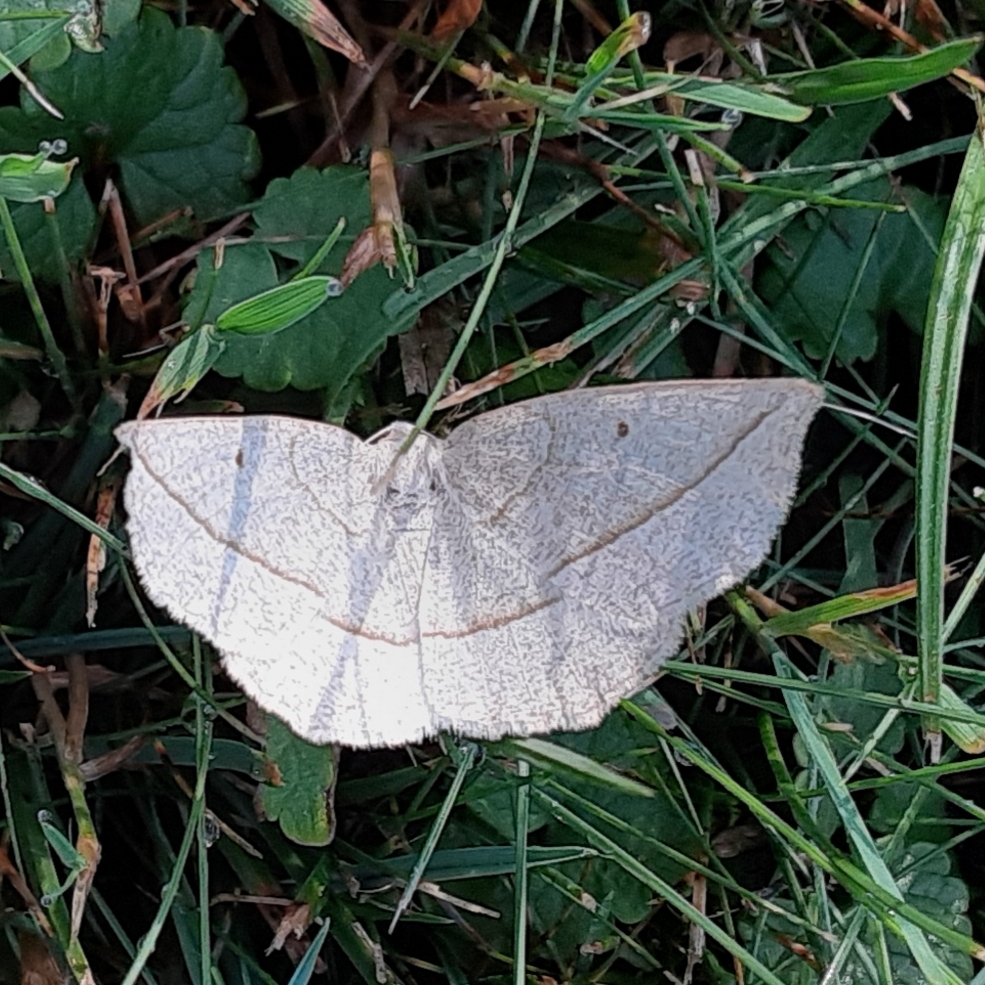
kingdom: Animalia
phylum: Arthropoda
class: Insecta
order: Lepidoptera
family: Geometridae
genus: Eusarca
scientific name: Eusarca confusaria
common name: Confused eusarca
